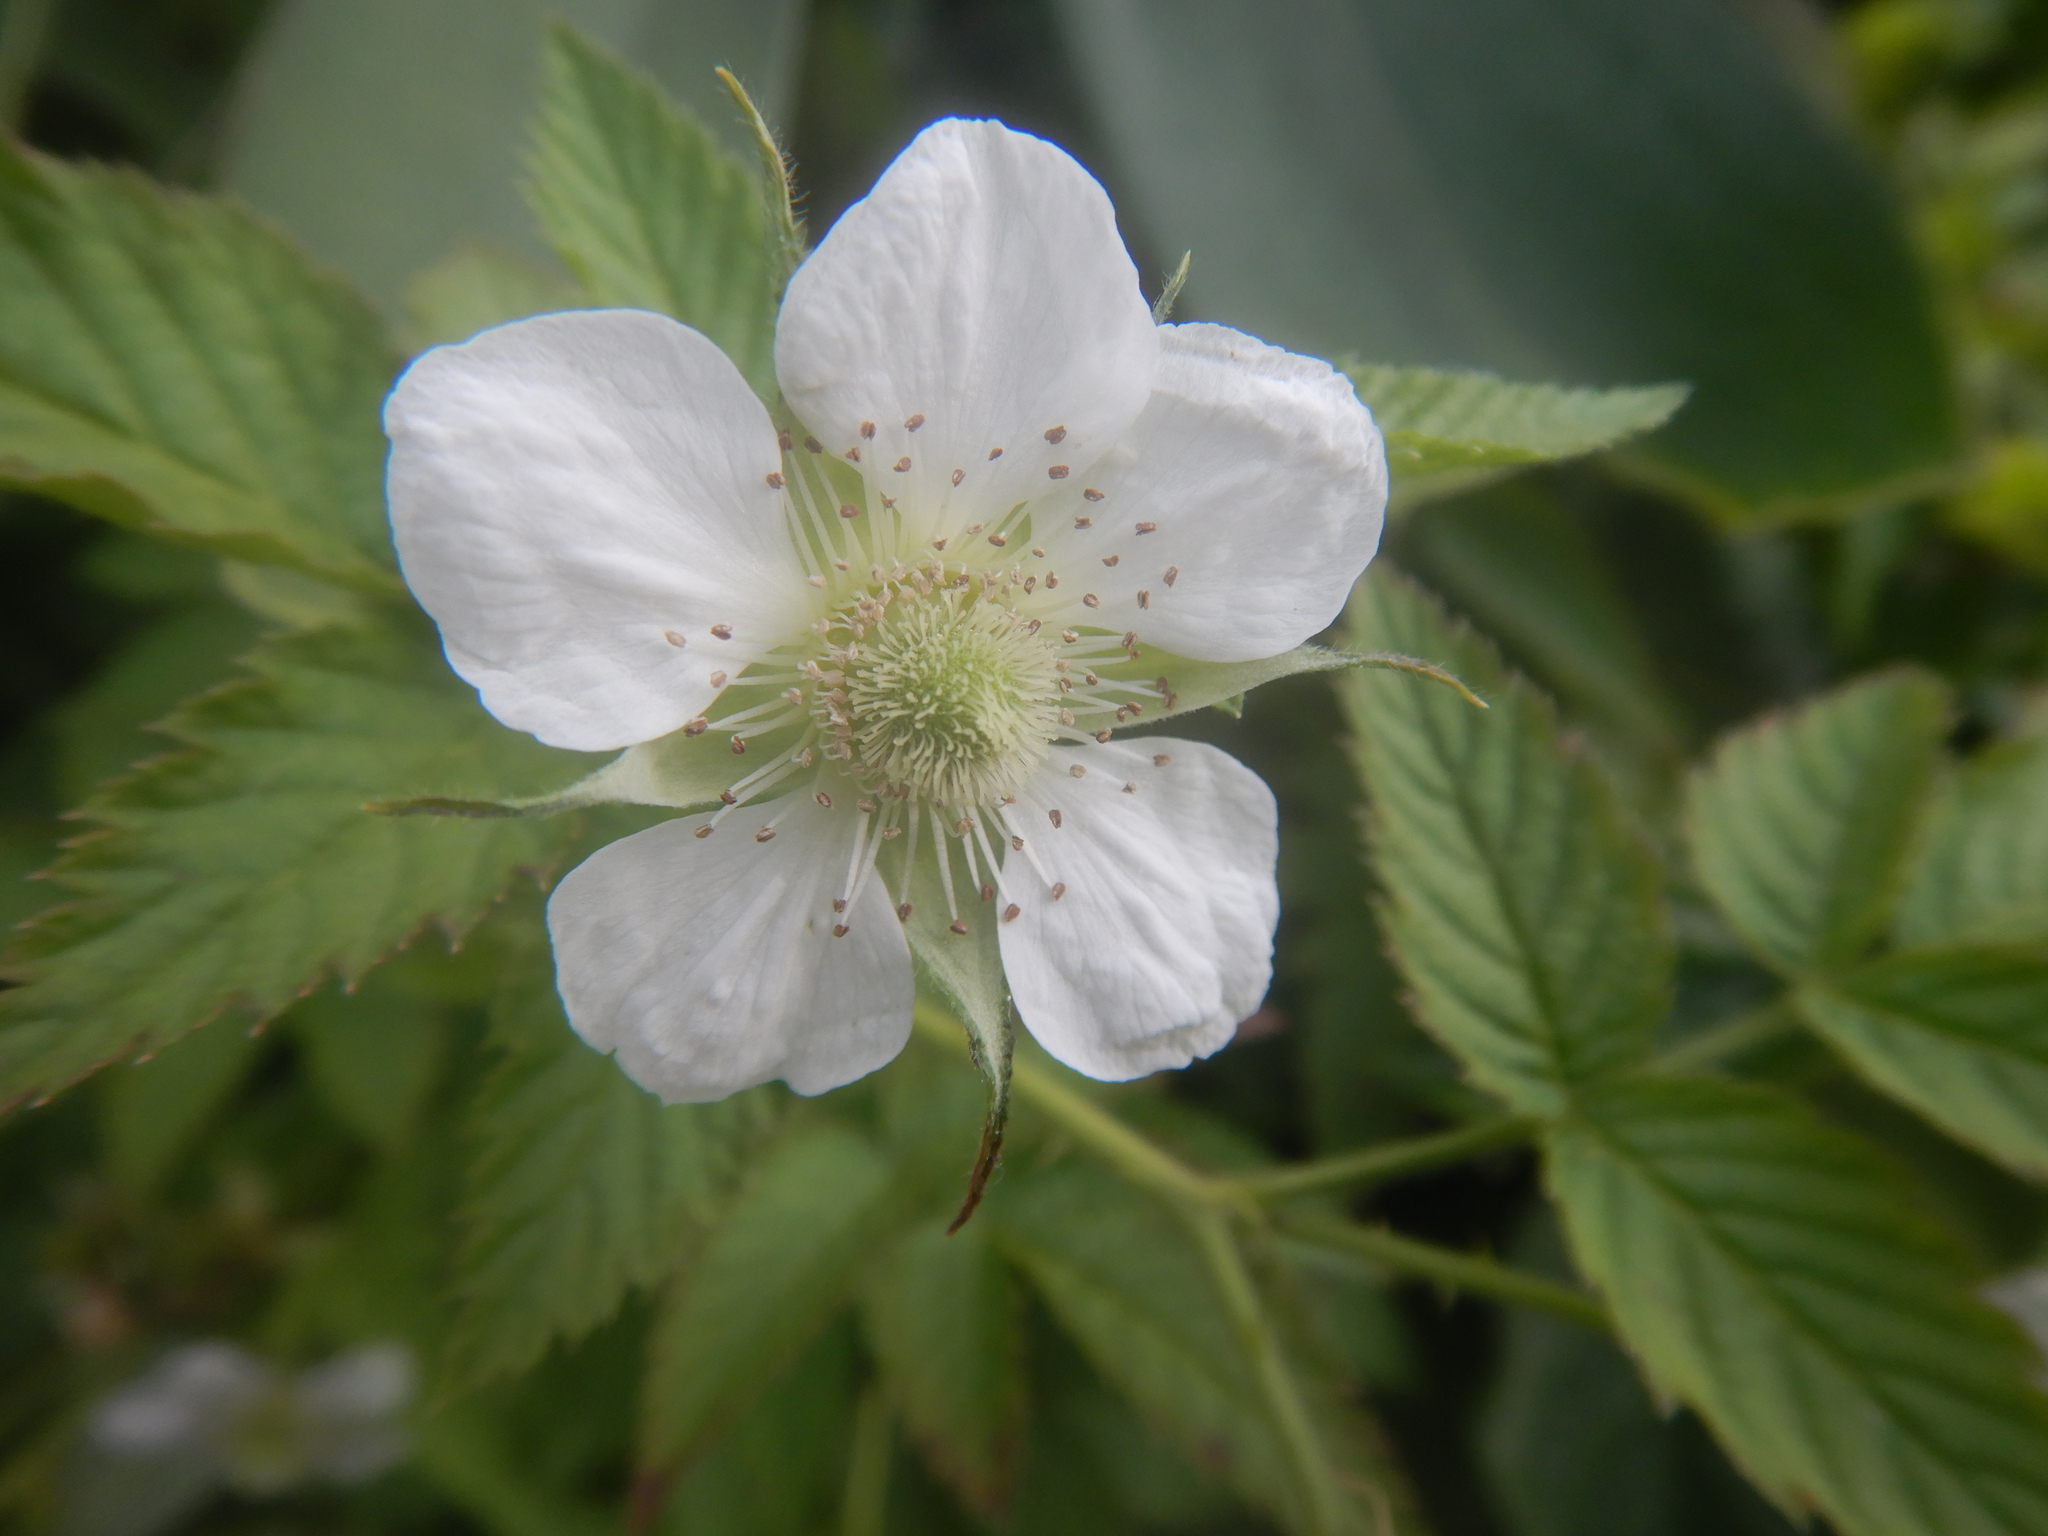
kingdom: Plantae
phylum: Tracheophyta
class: Magnoliopsida
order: Rosales
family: Rosaceae
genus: Rubus
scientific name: Rubus rosifolius
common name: Roseleaf raspberry
